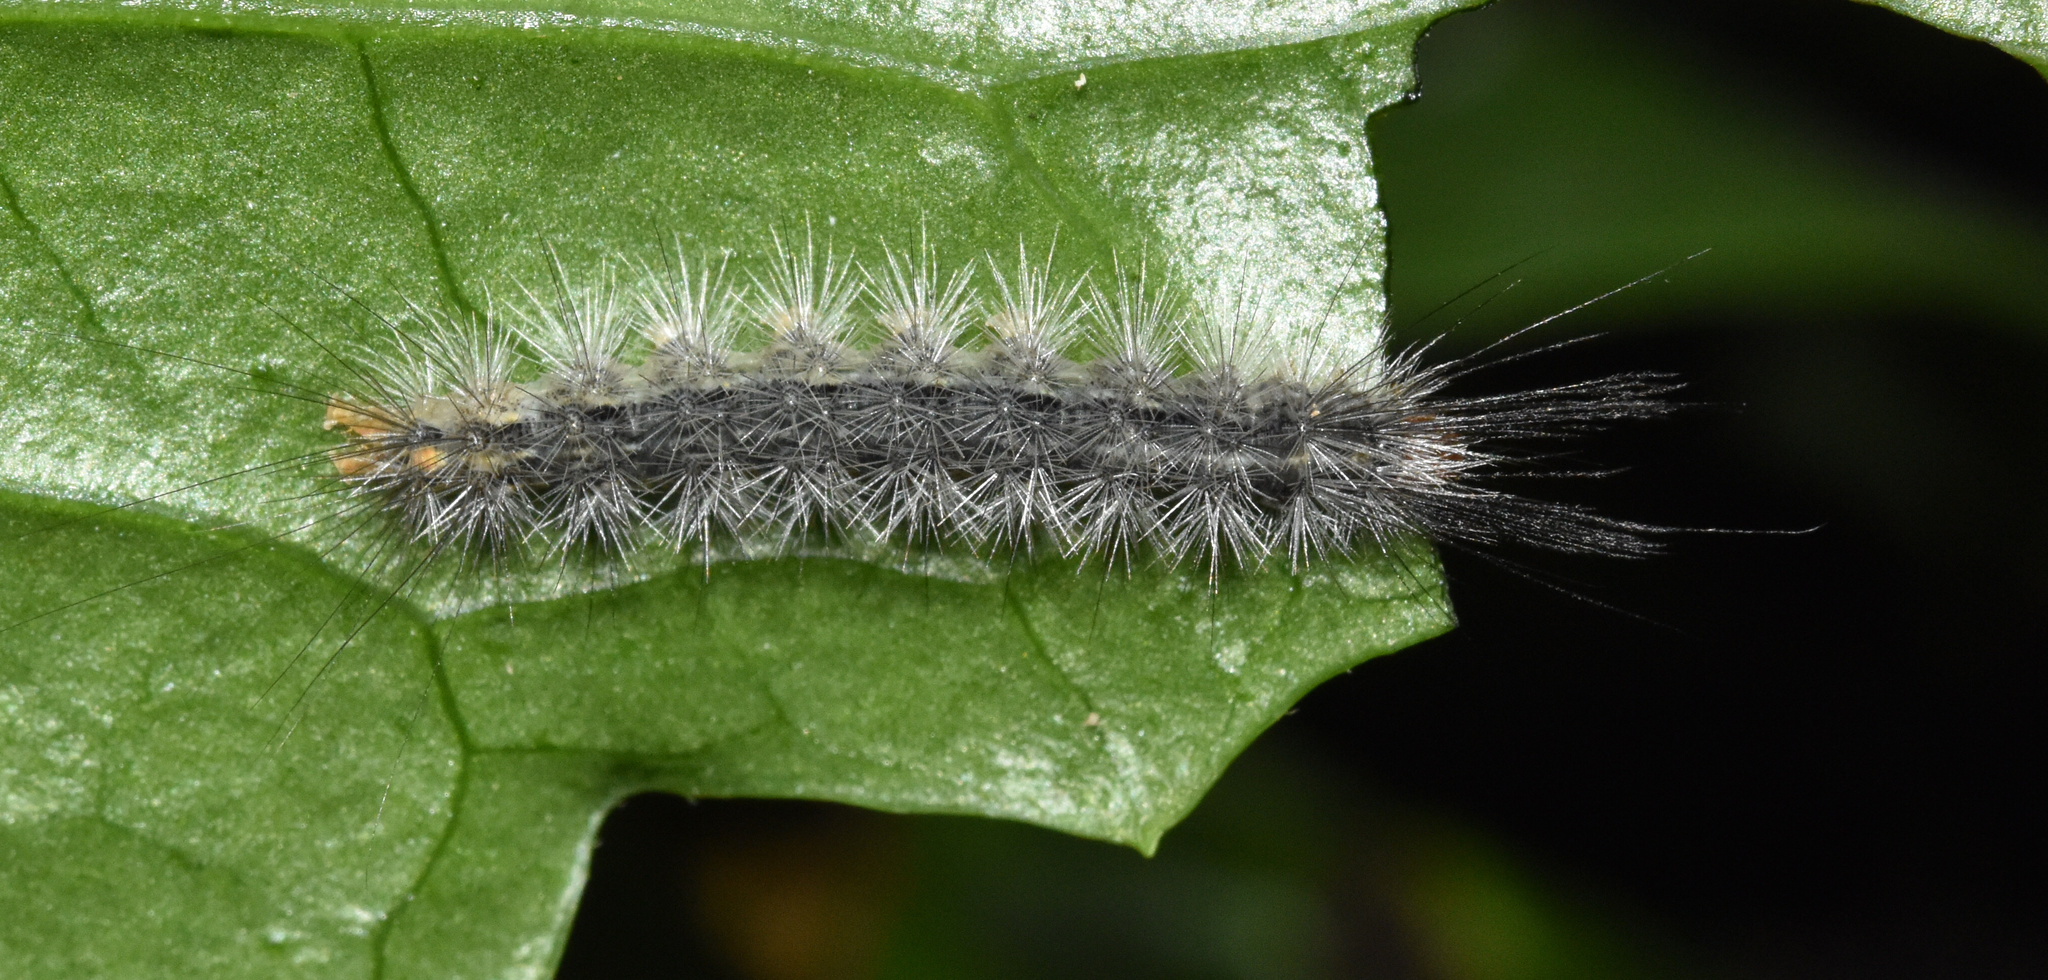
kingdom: Animalia
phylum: Arthropoda
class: Insecta
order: Lepidoptera
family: Erebidae
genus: Galtara
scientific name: Galtara rostrata
